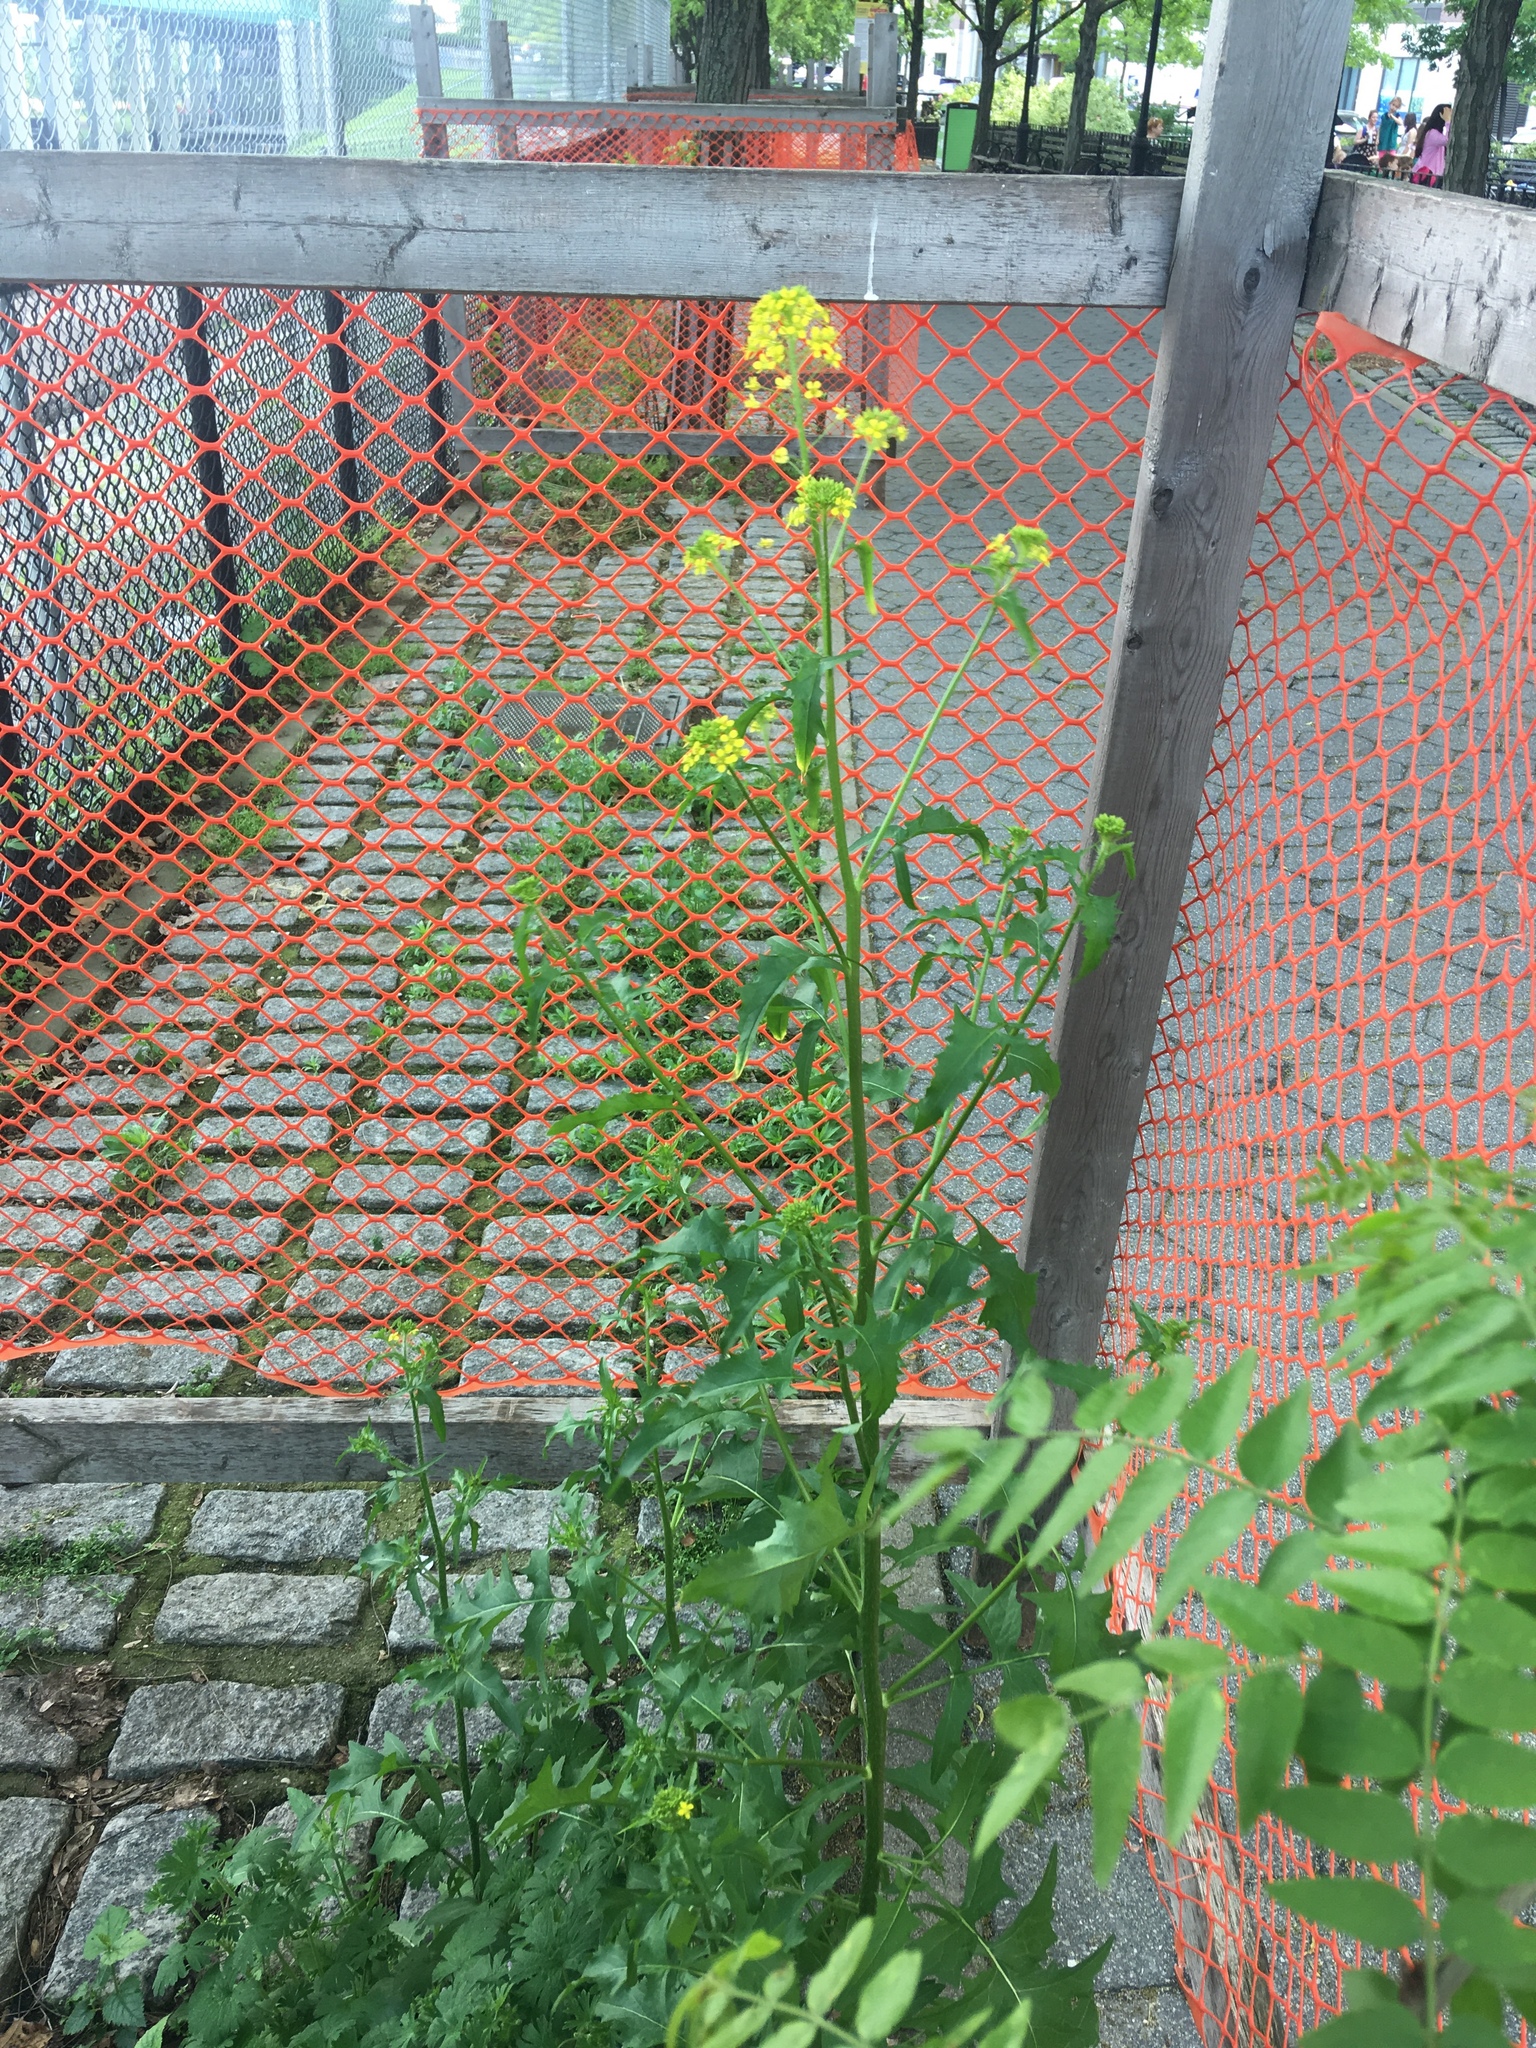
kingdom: Plantae
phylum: Tracheophyta
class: Magnoliopsida
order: Brassicales
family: Brassicaceae
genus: Sisymbrium
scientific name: Sisymbrium loeselii
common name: False london-rocket
